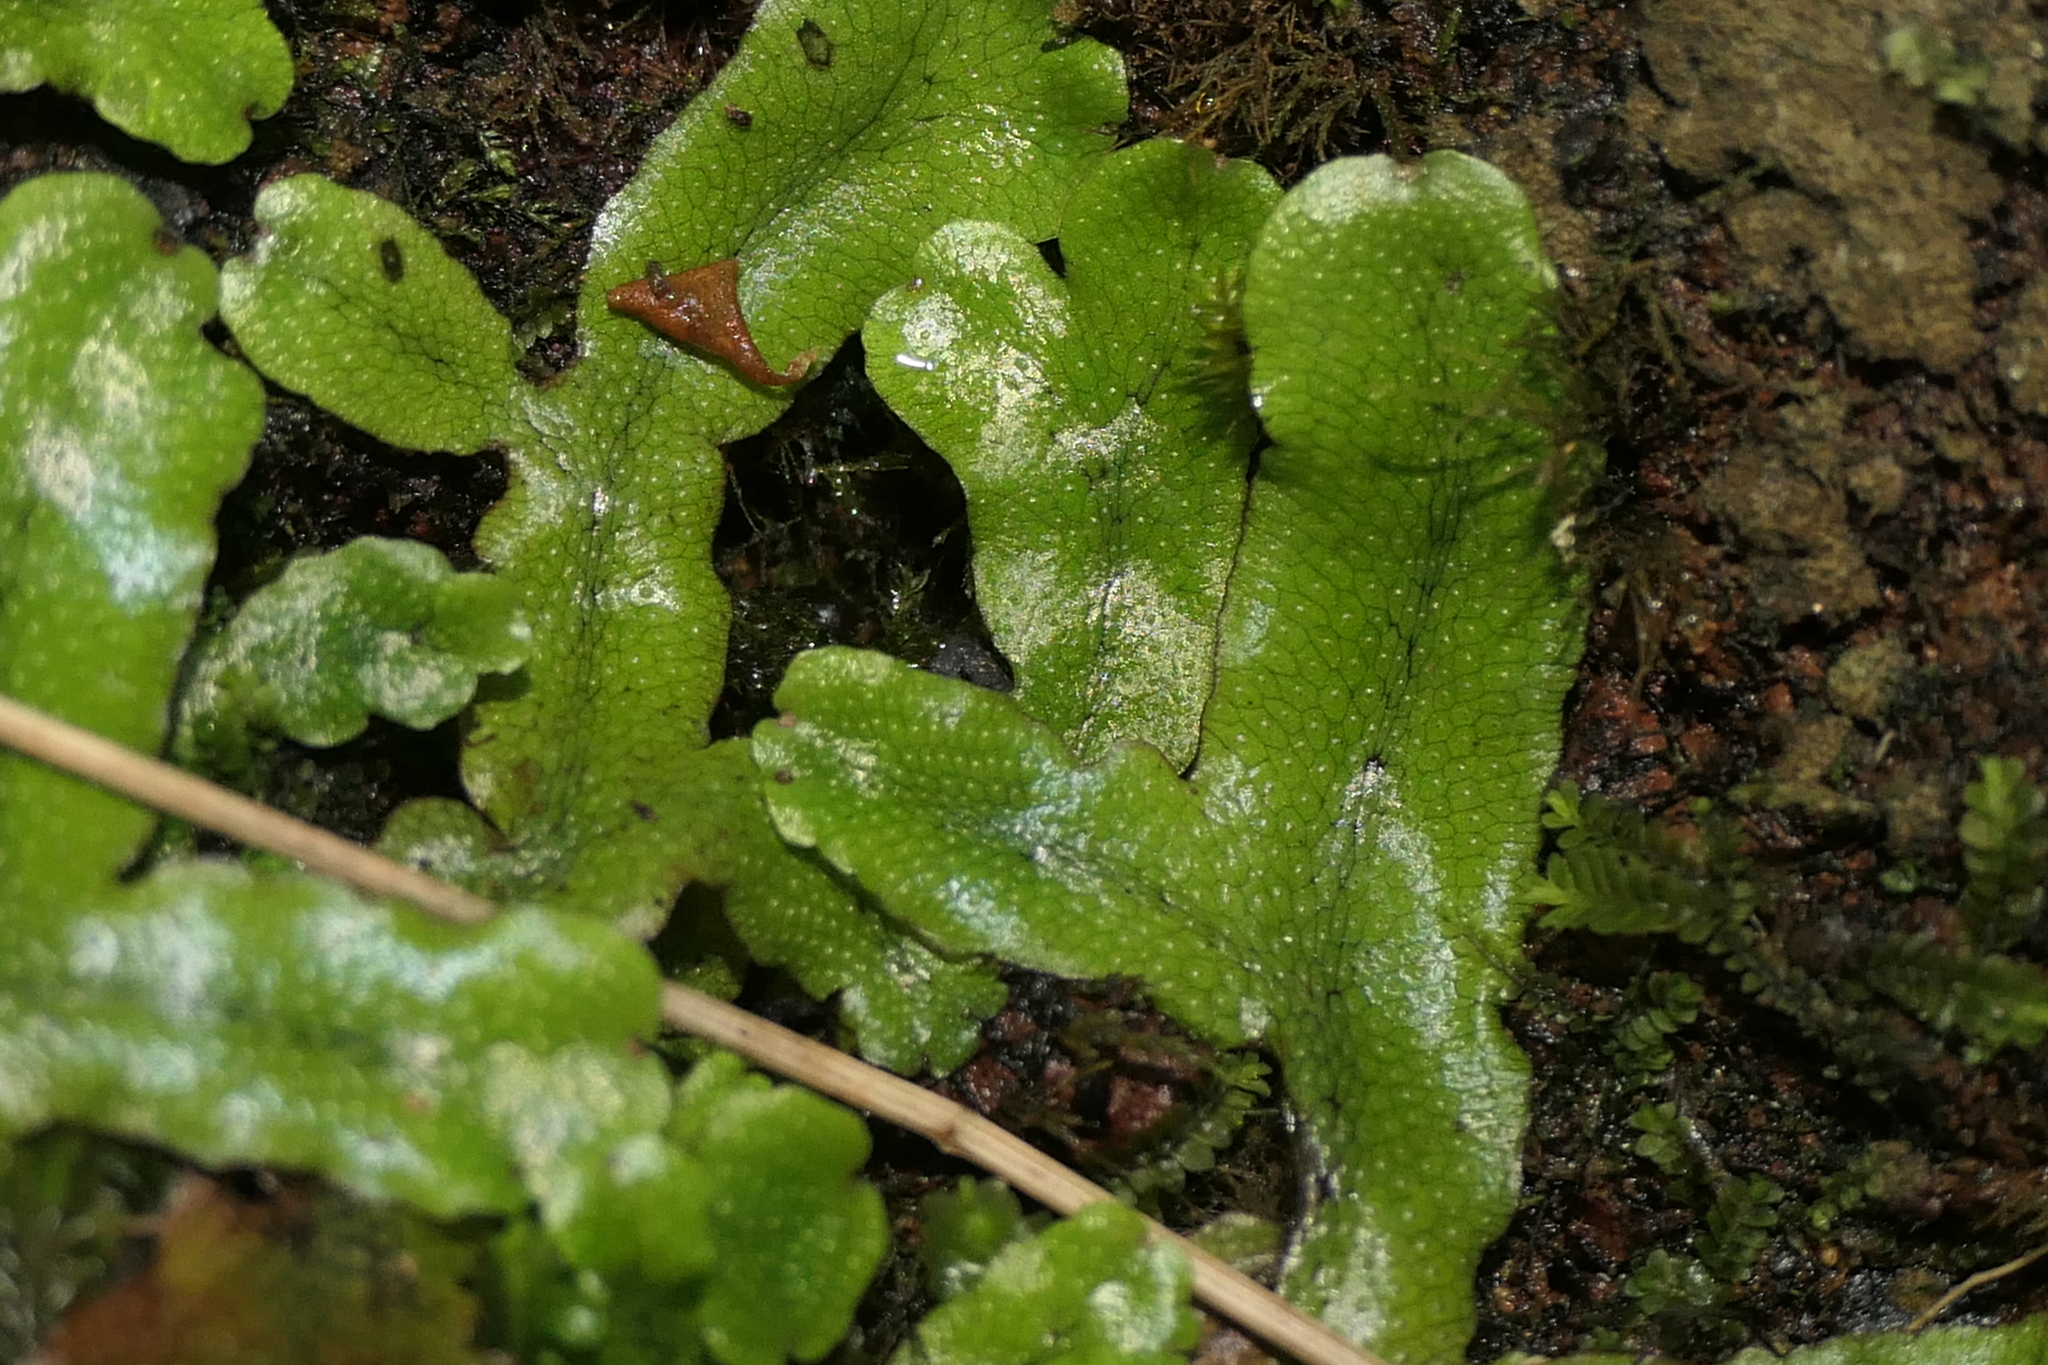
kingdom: Plantae
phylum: Marchantiophyta
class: Marchantiopsida
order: Marchantiales
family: Conocephalaceae
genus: Conocephalum
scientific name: Conocephalum conicum
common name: Great scented liverwort
